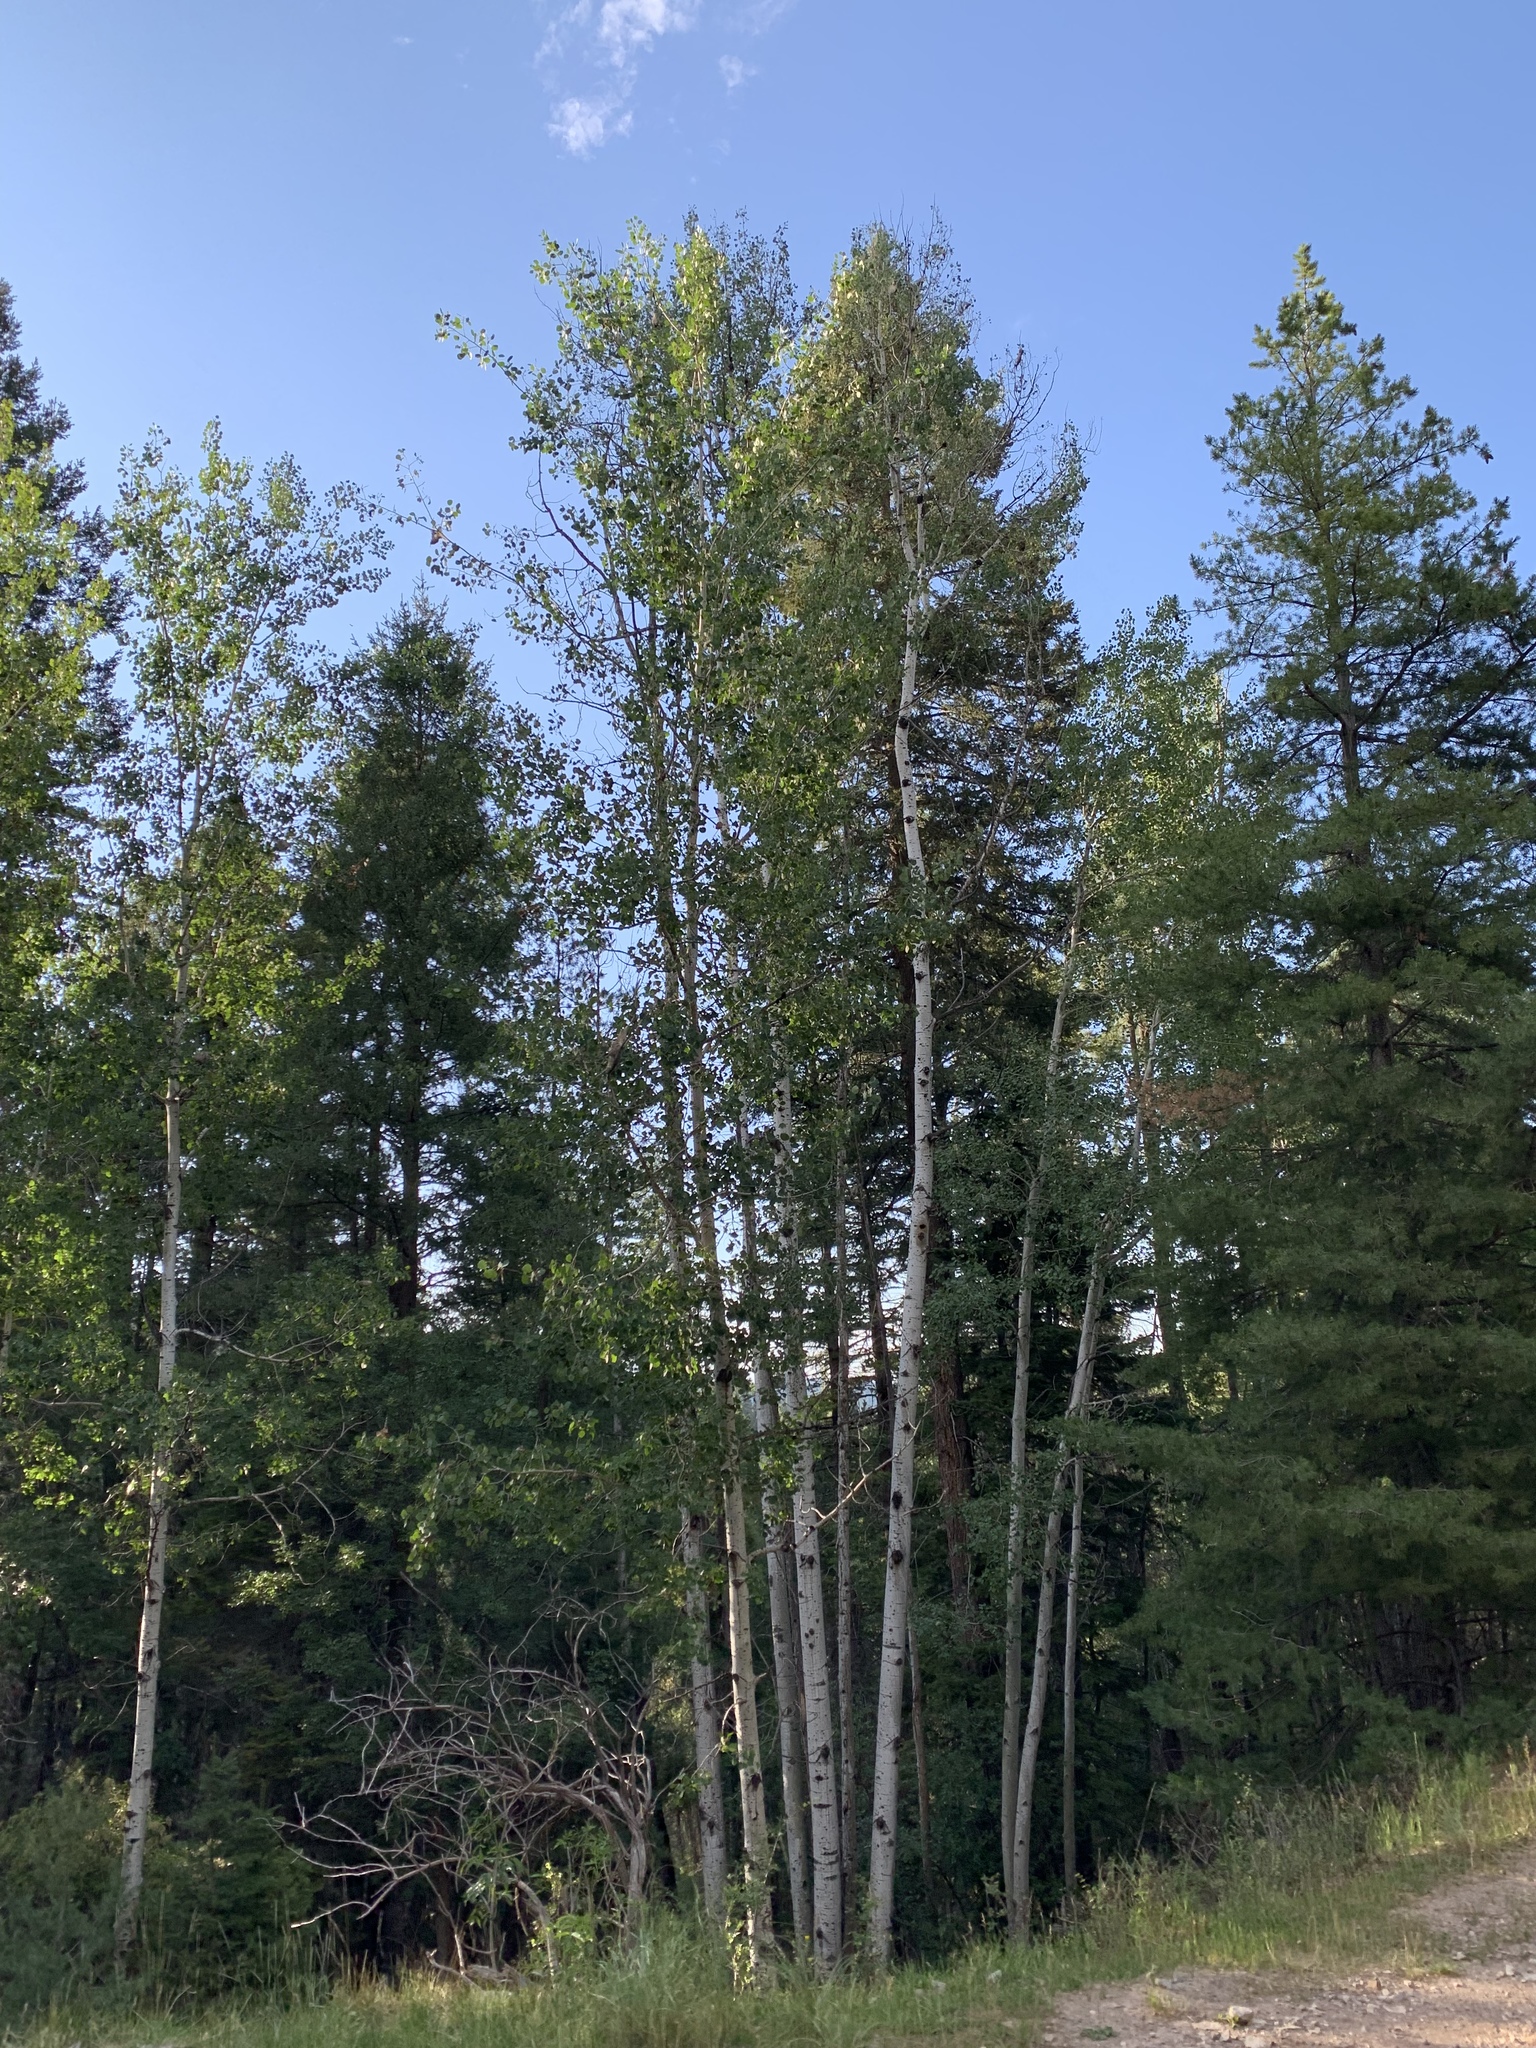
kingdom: Plantae
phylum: Tracheophyta
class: Magnoliopsida
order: Malpighiales
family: Salicaceae
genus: Populus
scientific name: Populus tremuloides
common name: Quaking aspen
